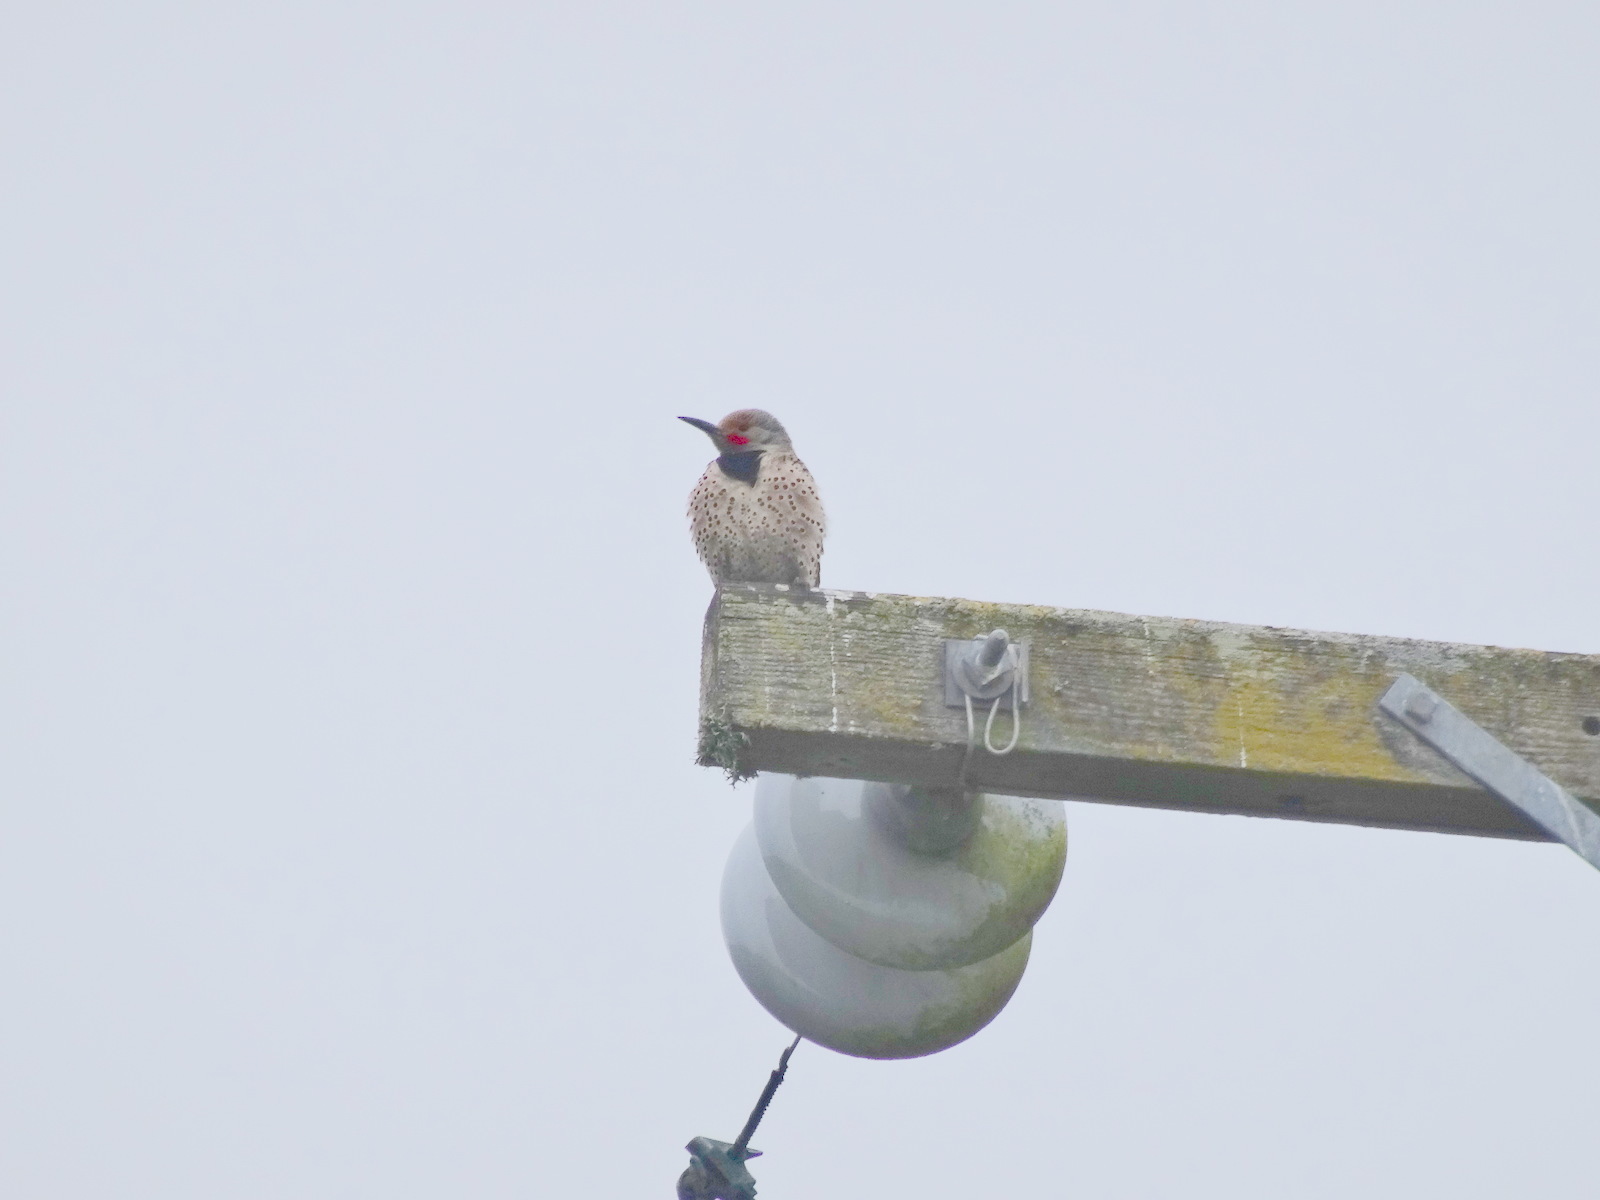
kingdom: Animalia
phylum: Chordata
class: Aves
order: Piciformes
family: Picidae
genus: Colaptes
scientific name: Colaptes auratus
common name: Northern flicker
